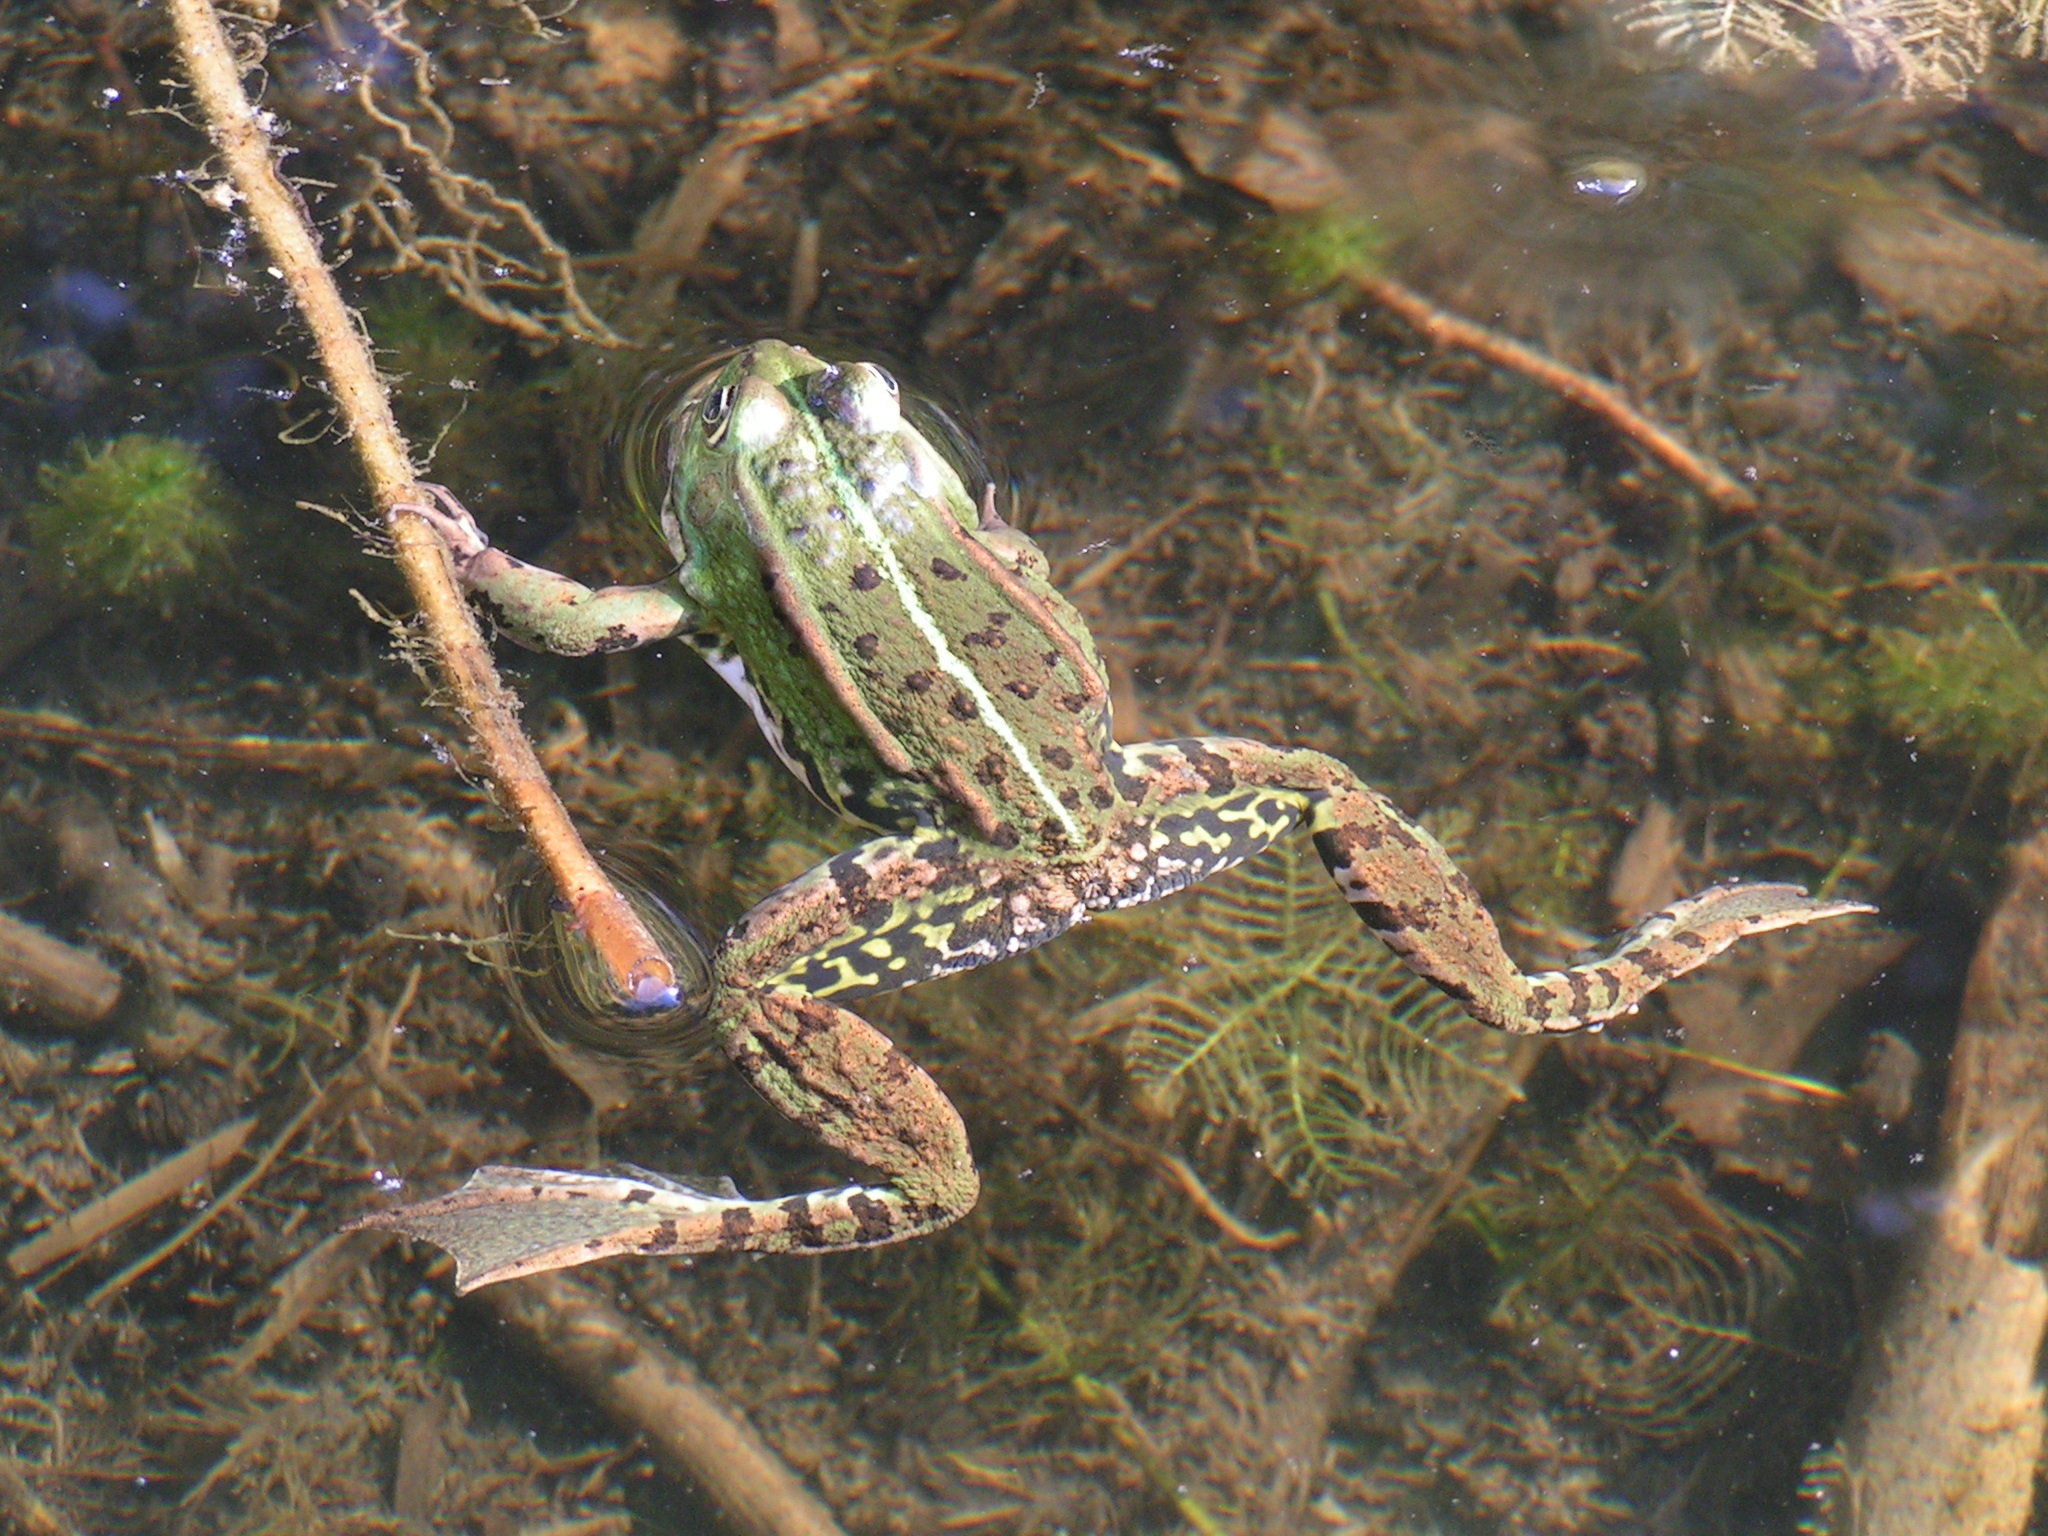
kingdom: Animalia
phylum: Chordata
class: Amphibia
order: Anura
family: Ranidae
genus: Pelophylax
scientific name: Pelophylax lessonae
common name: Pool frog
